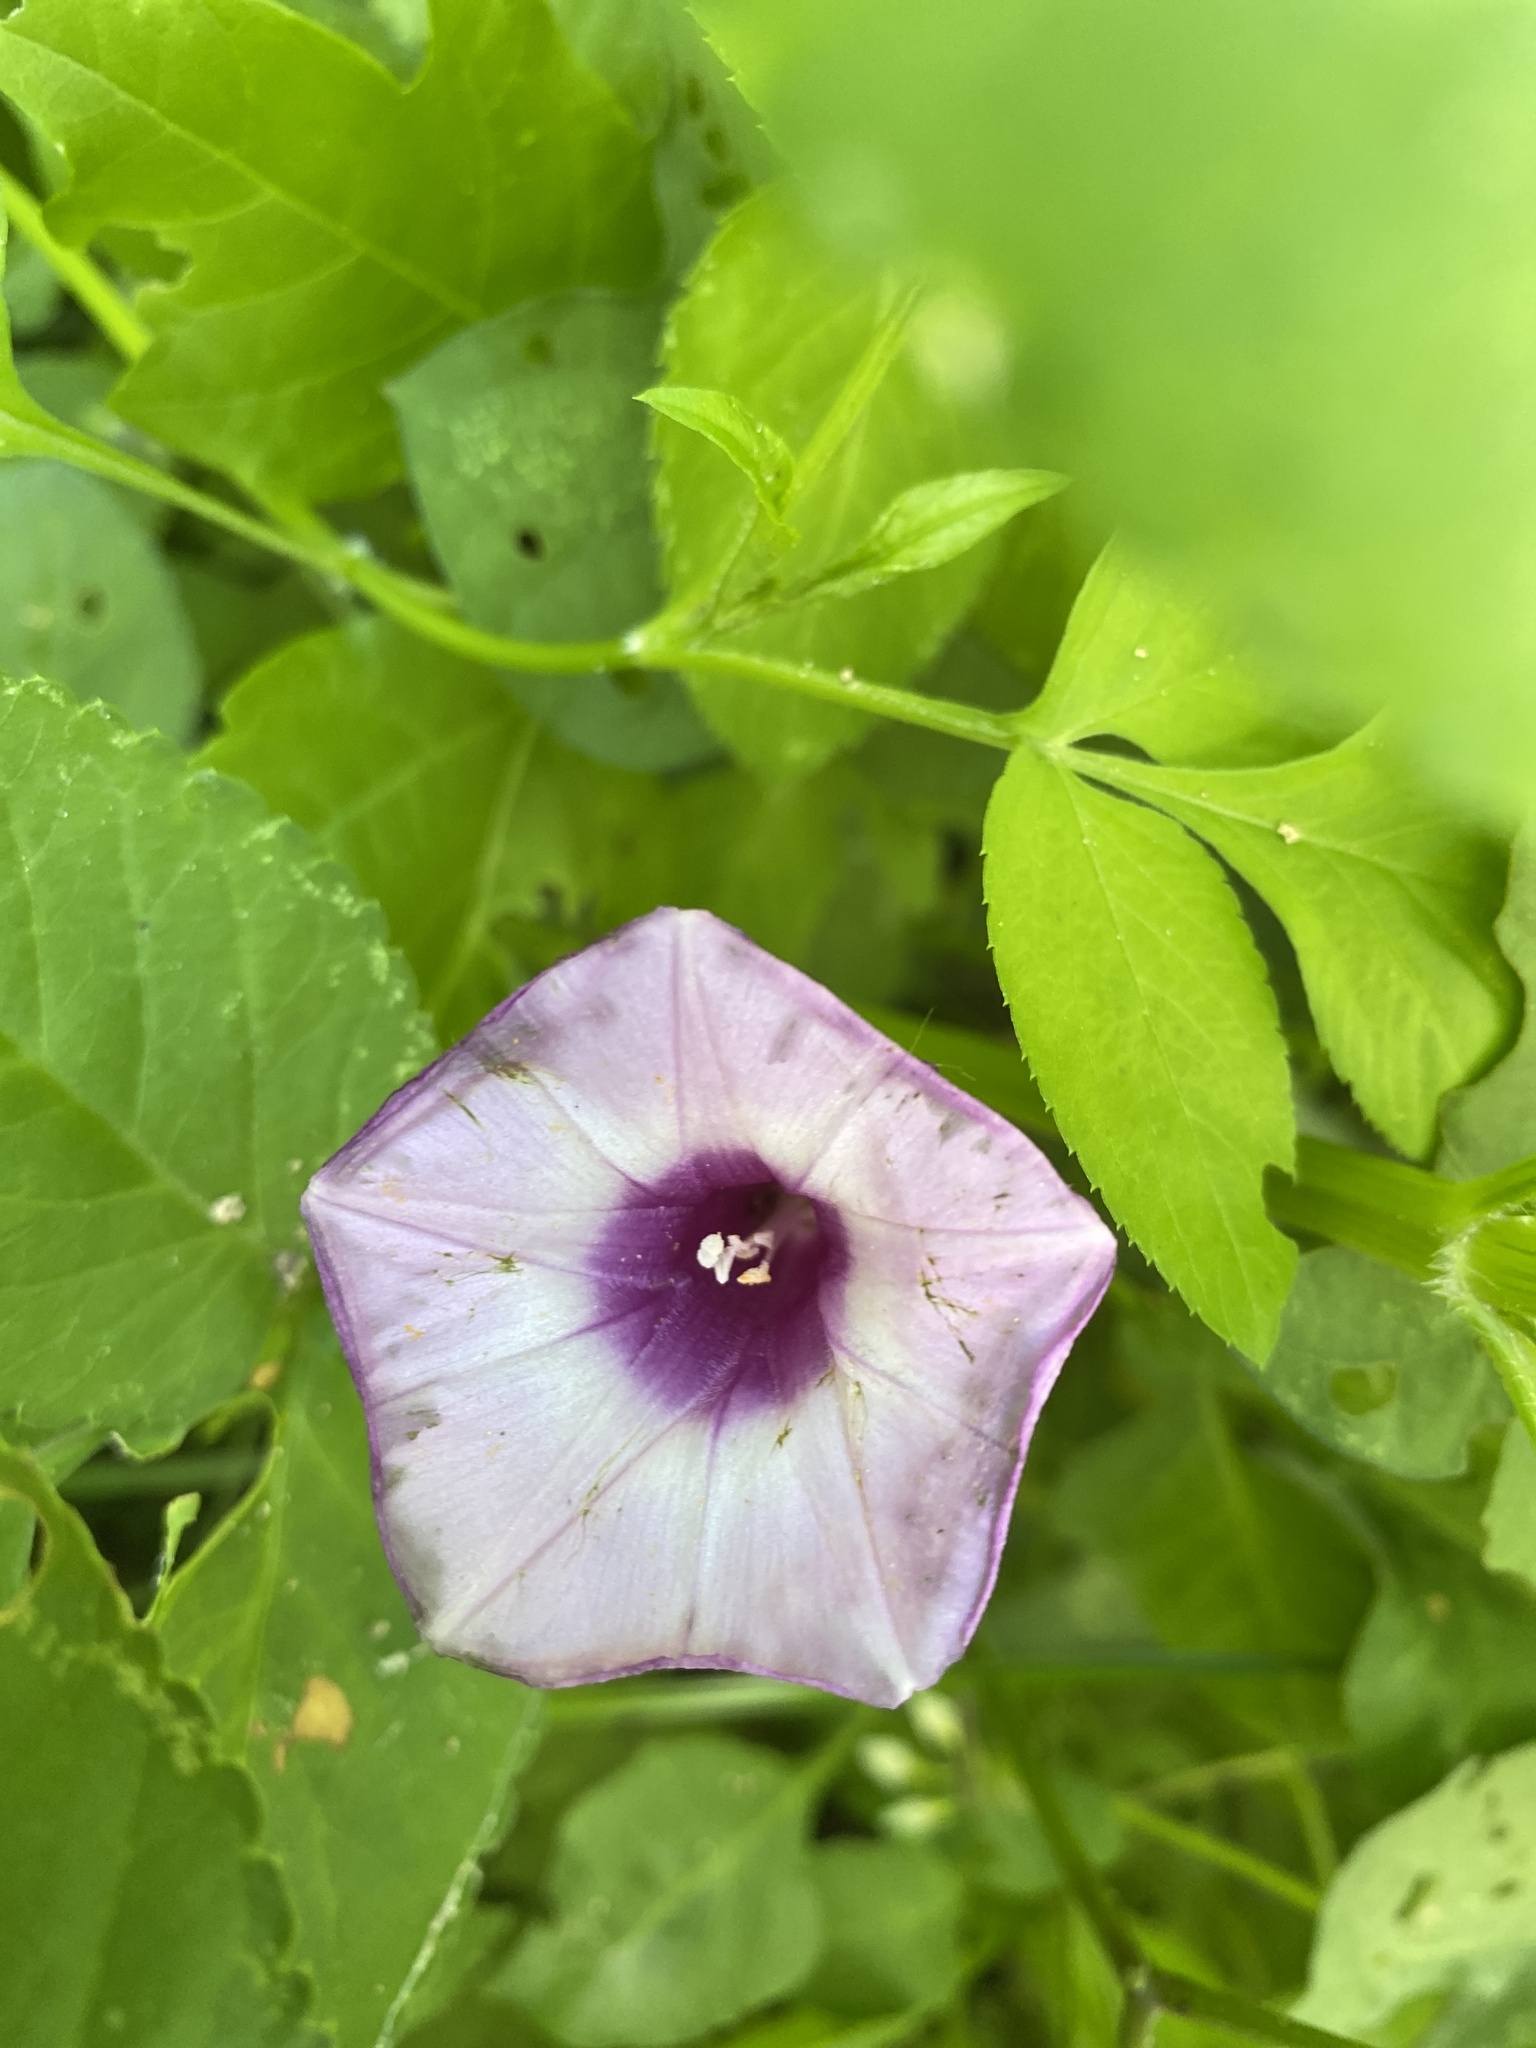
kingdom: Plantae
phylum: Tracheophyta
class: Magnoliopsida
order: Solanales
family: Convolvulaceae
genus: Ipomoea
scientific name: Ipomoea cordatotriloba
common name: Cotton morning glory
